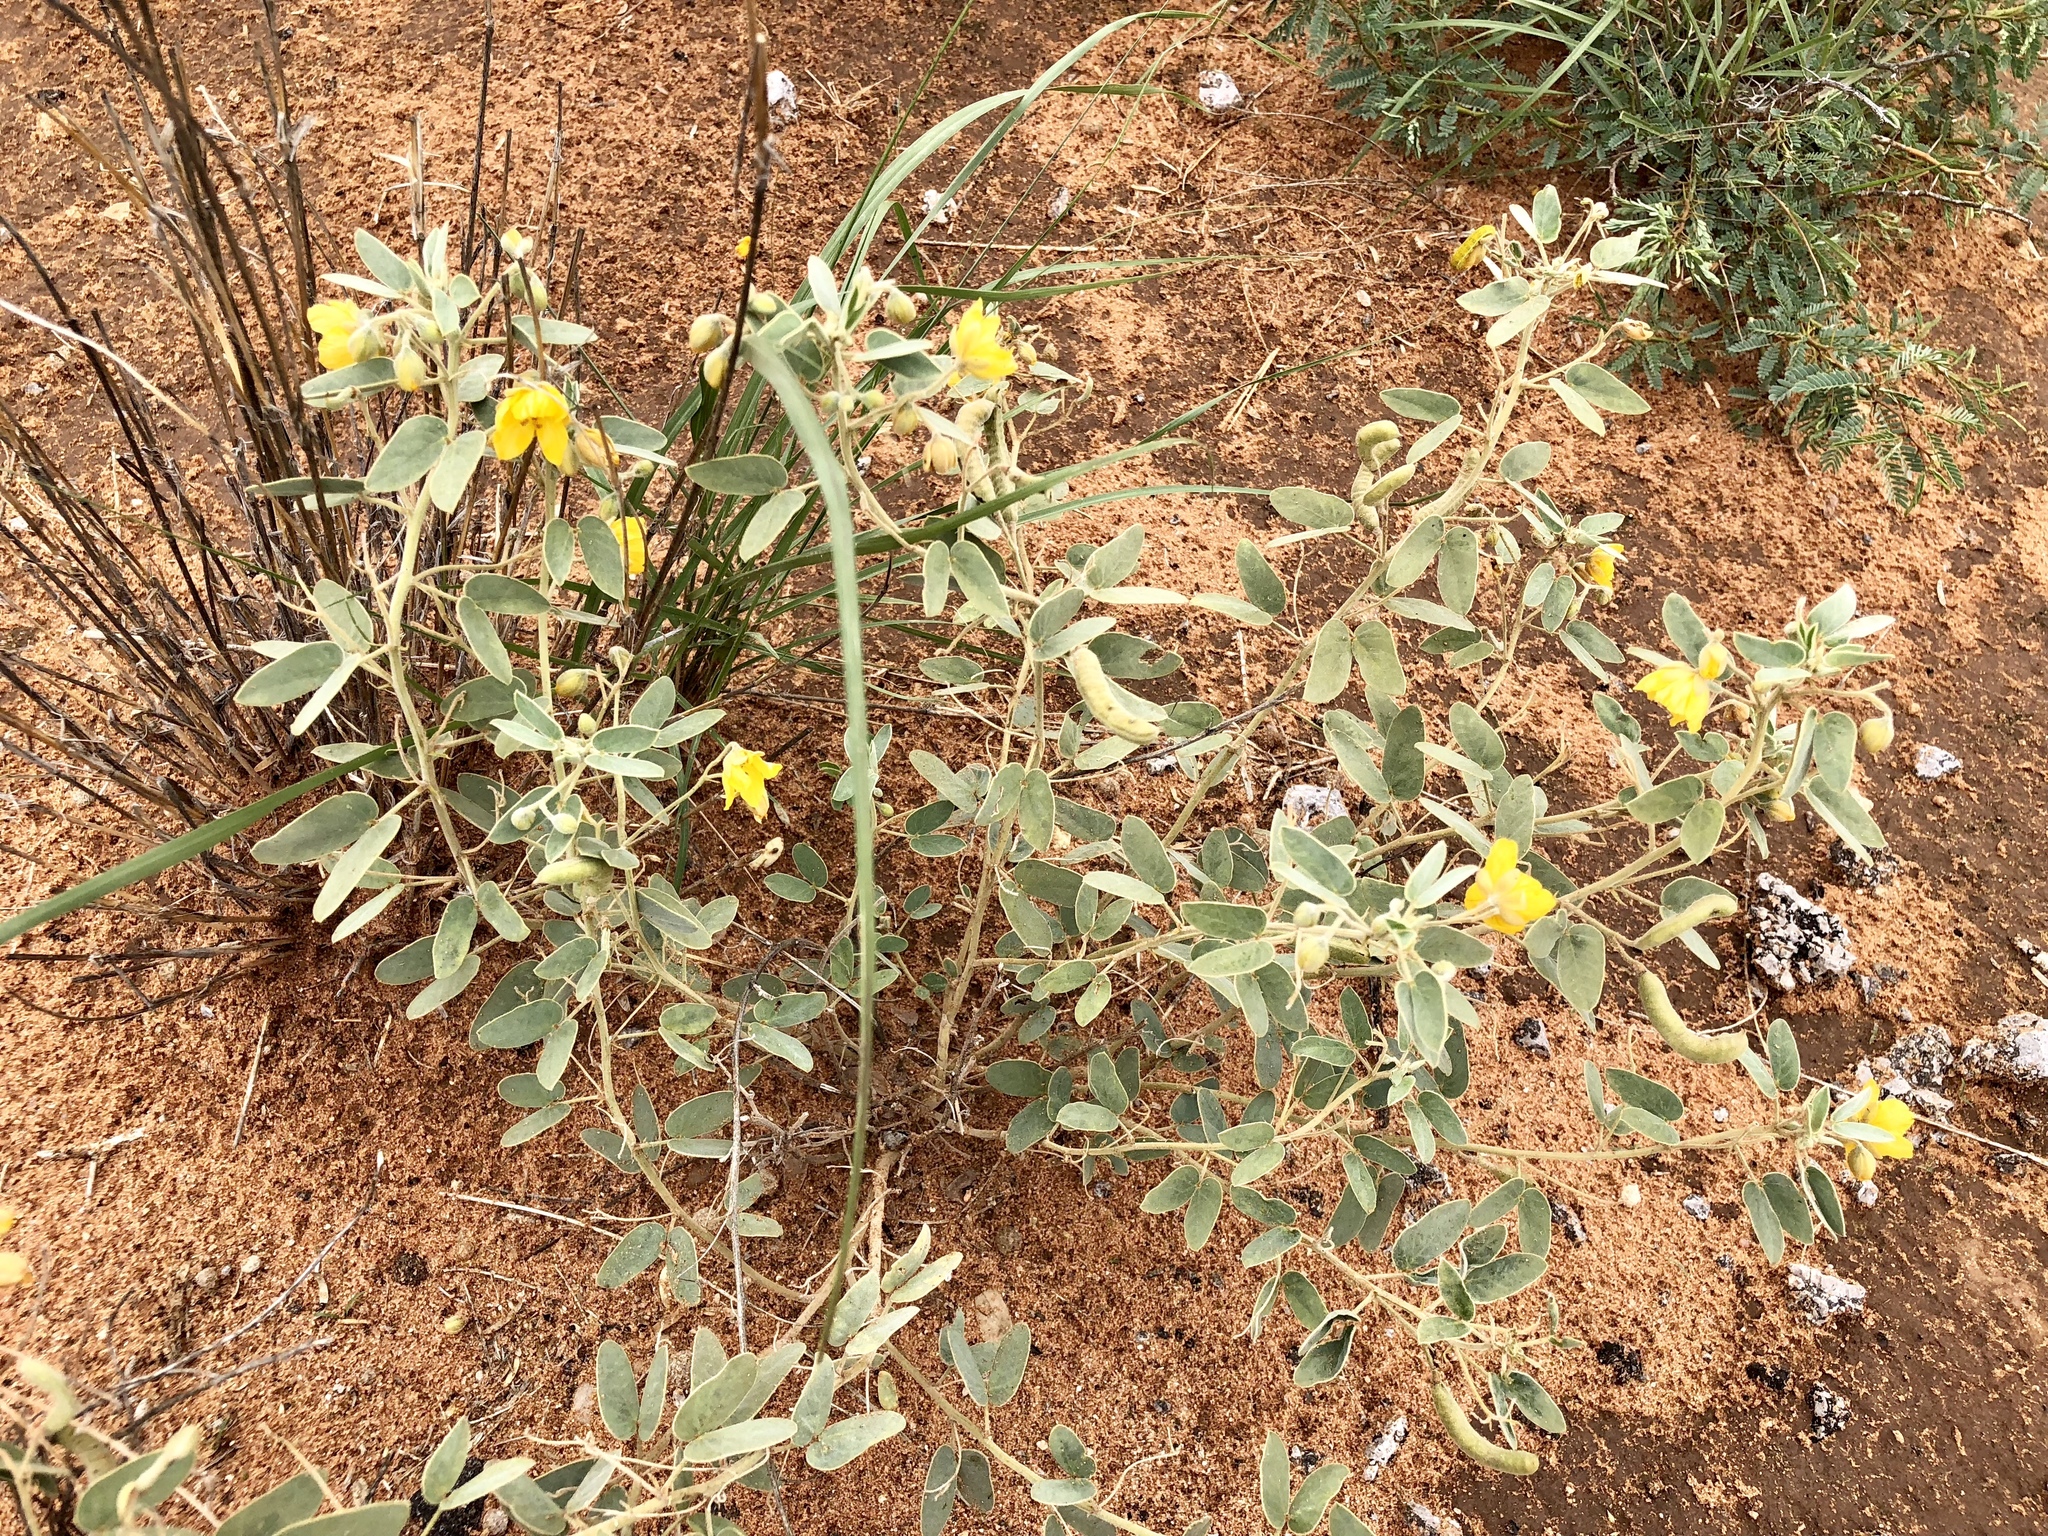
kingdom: Plantae
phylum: Tracheophyta
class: Magnoliopsida
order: Fabales
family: Fabaceae
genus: Senna
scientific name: Senna bauhinioides
